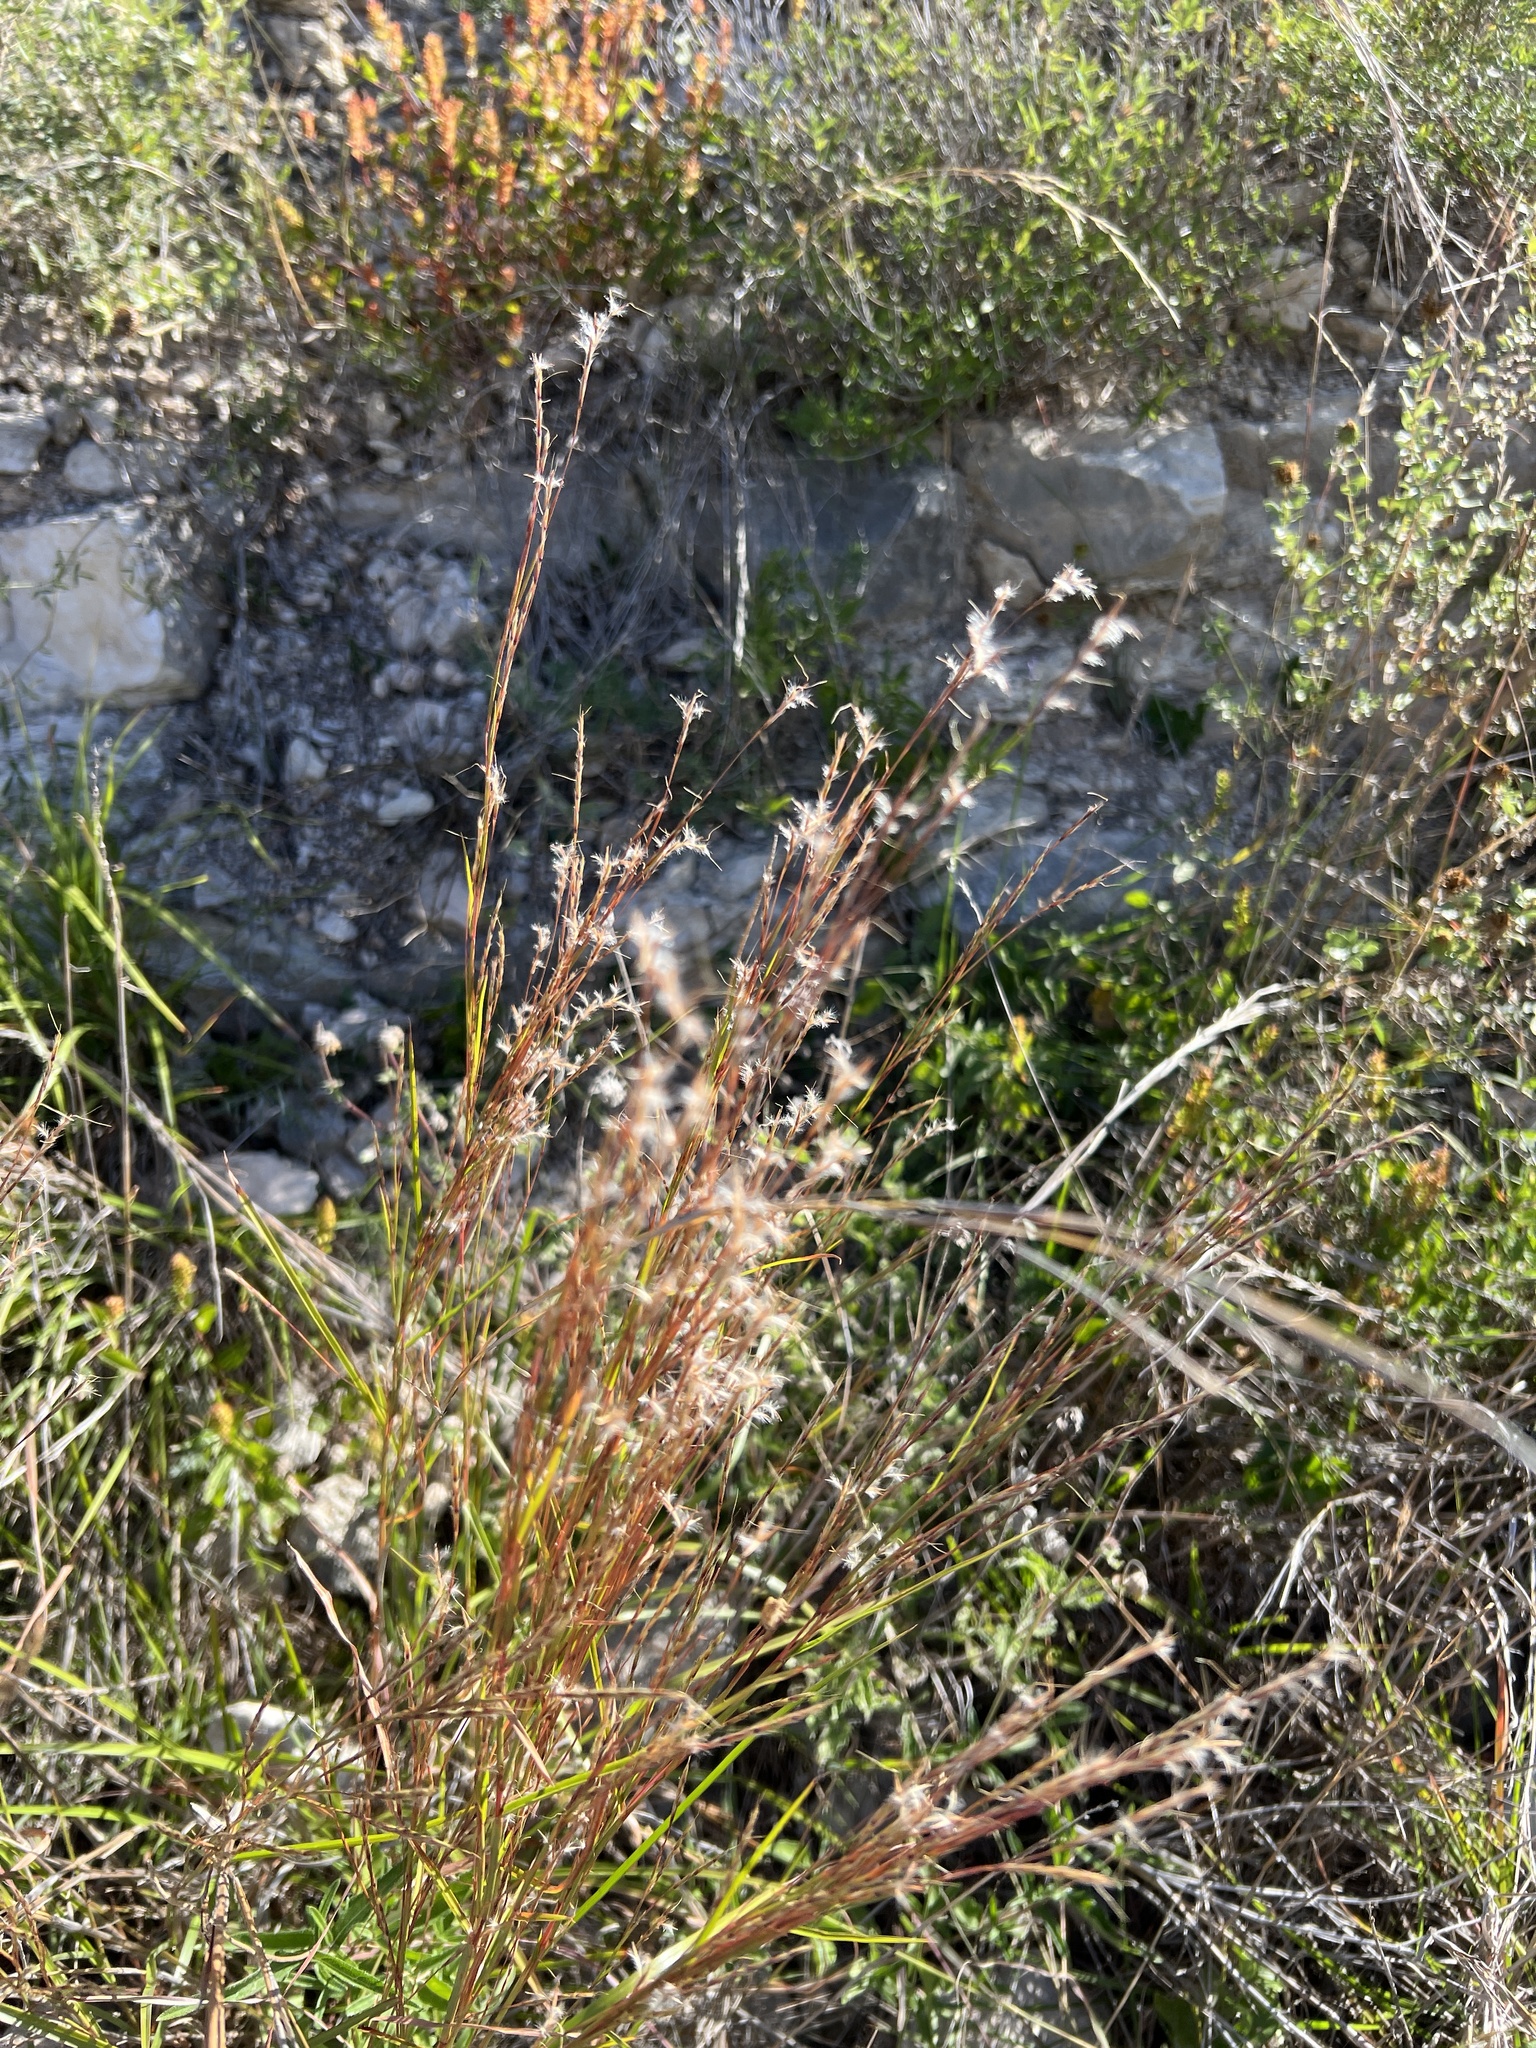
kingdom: Plantae
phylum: Tracheophyta
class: Liliopsida
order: Poales
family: Poaceae
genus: Schizachyrium
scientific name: Schizachyrium scoparium
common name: Little bluestem
